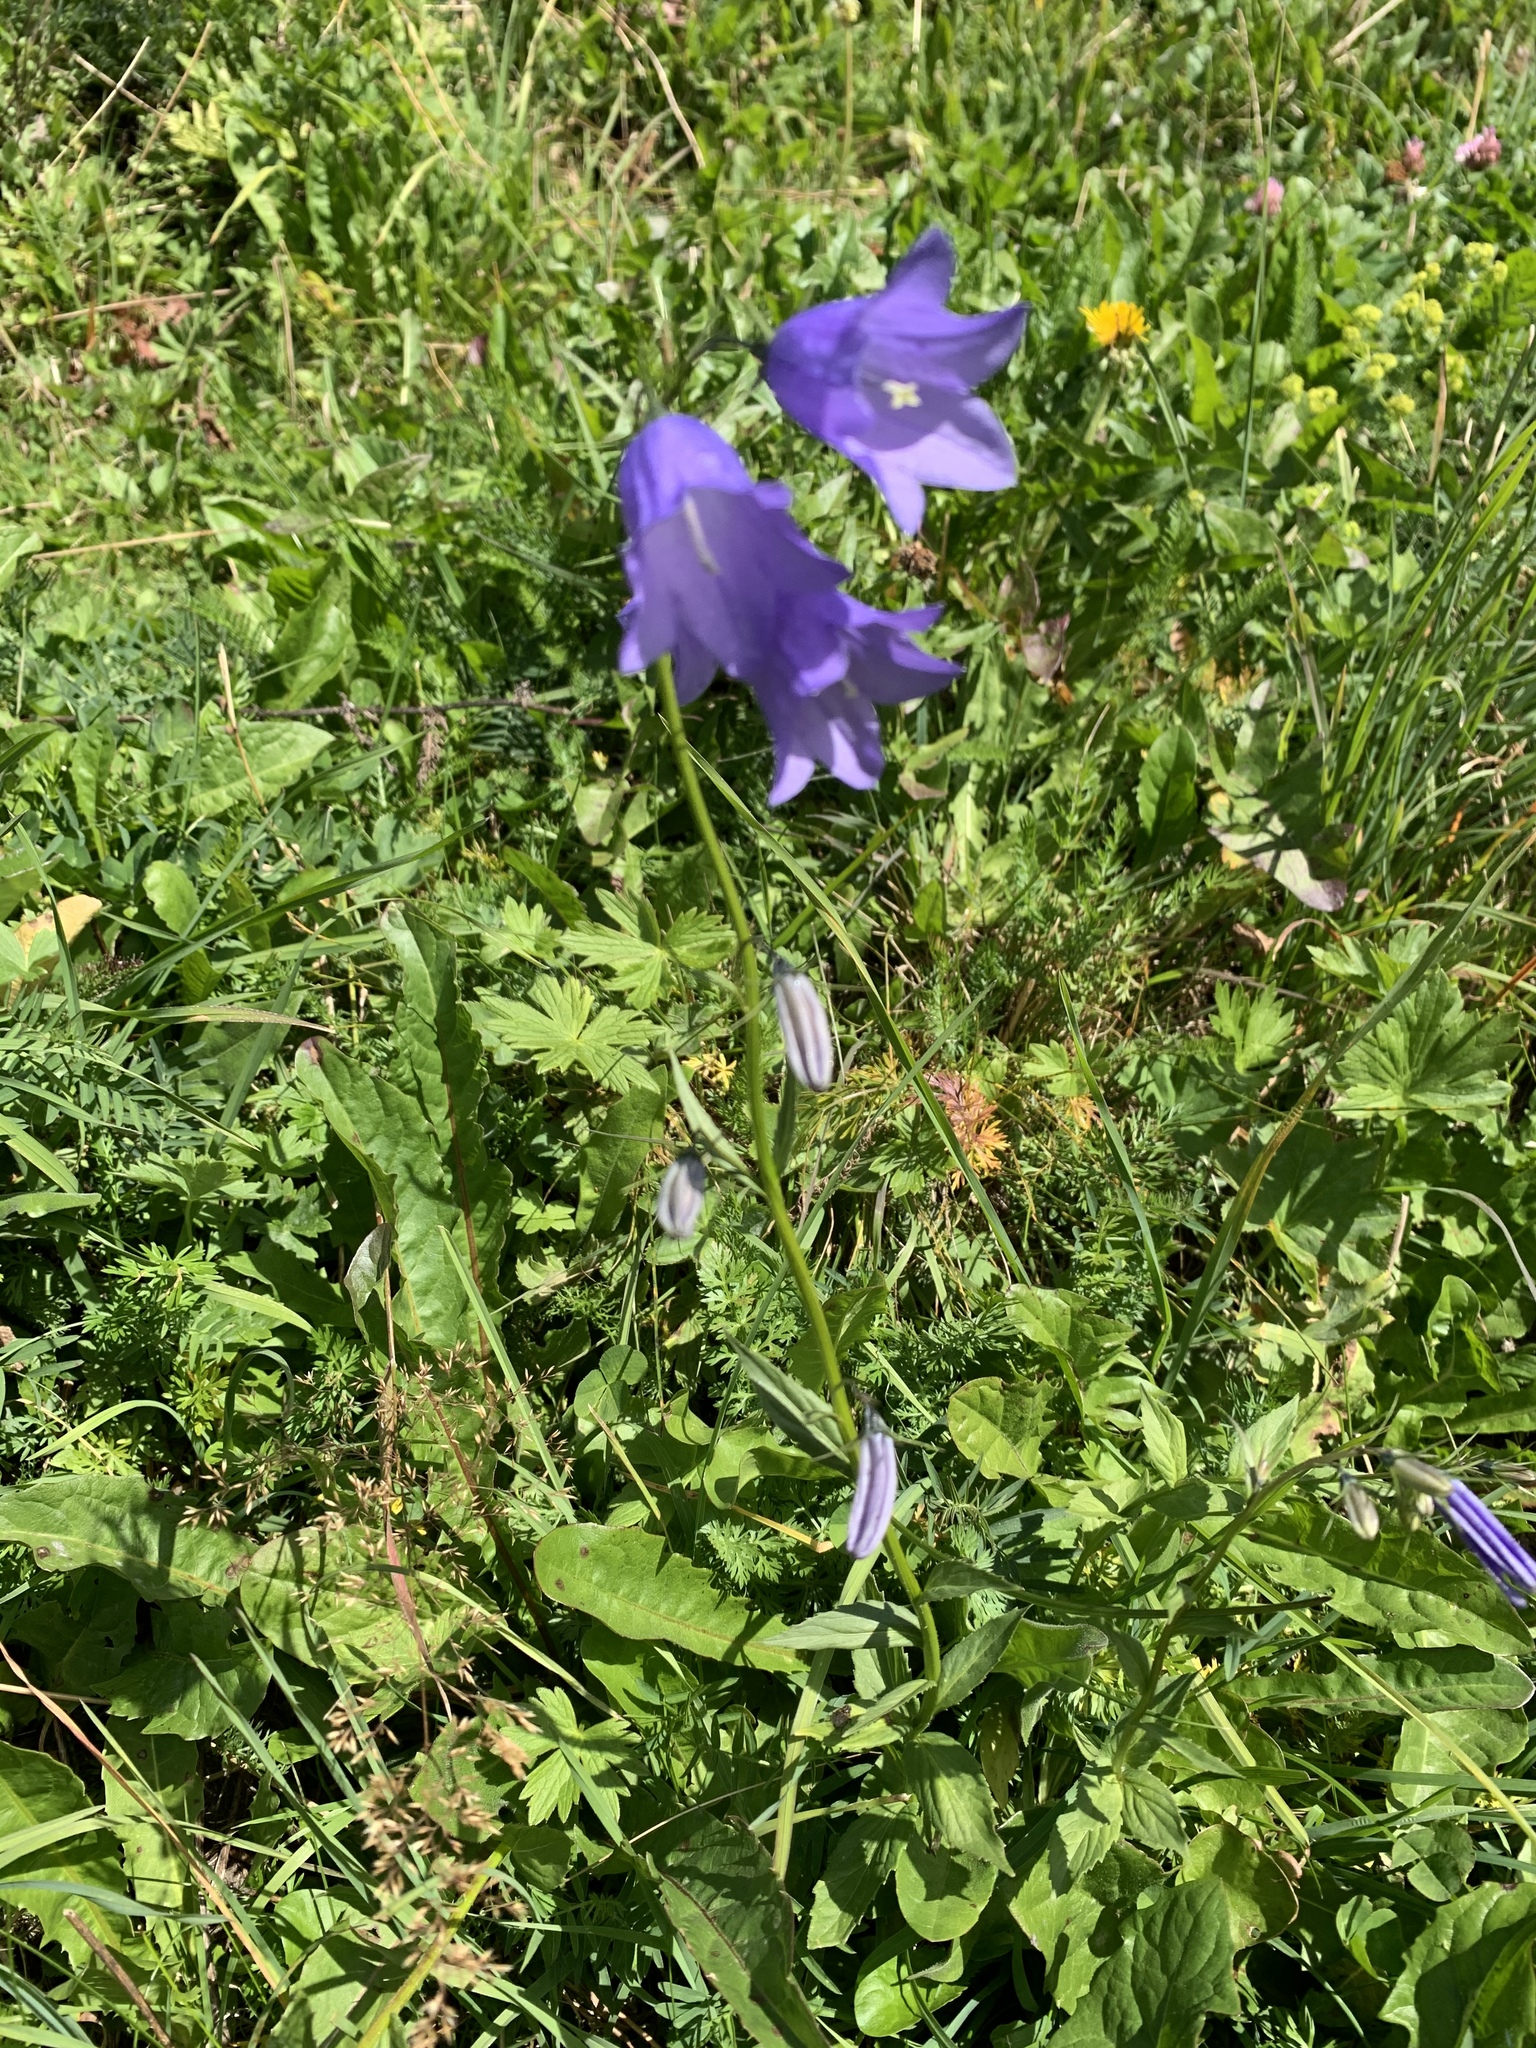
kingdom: Plantae
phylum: Tracheophyta
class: Magnoliopsida
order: Asterales
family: Campanulaceae
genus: Campanula
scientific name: Campanula rhomboidalis
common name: Broad-leaved harebell
